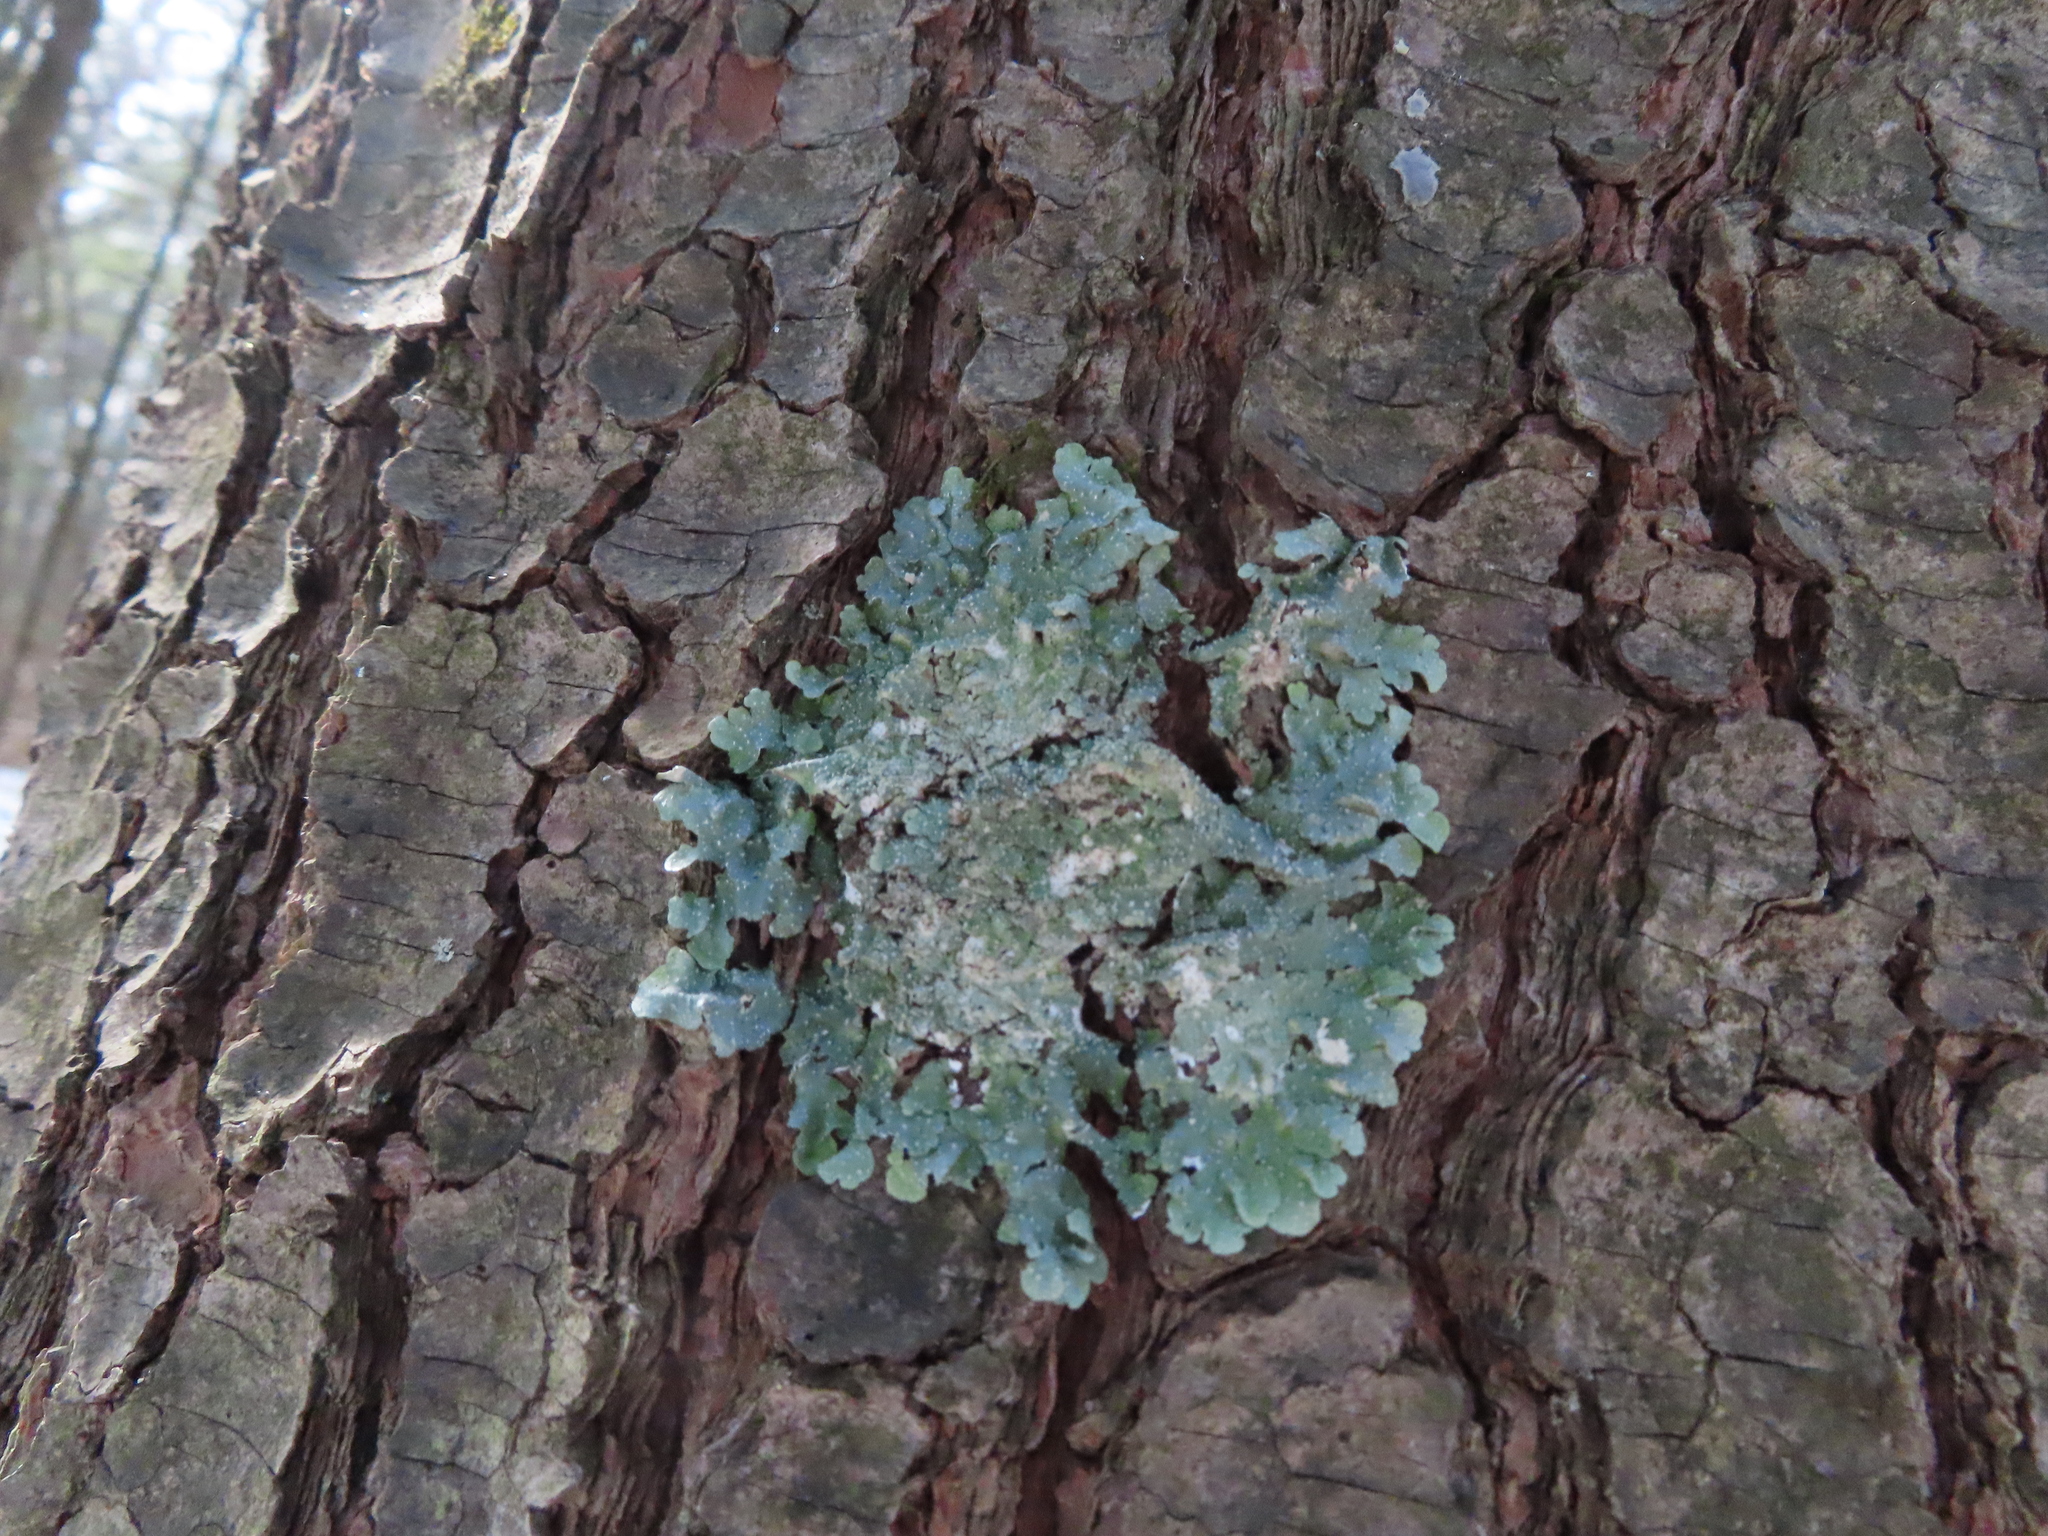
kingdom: Fungi
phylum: Ascomycota
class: Lecanoromycetes
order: Lecanorales
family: Parmeliaceae
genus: Punctelia
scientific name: Punctelia rudecta
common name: Rough speckled shield lichen
